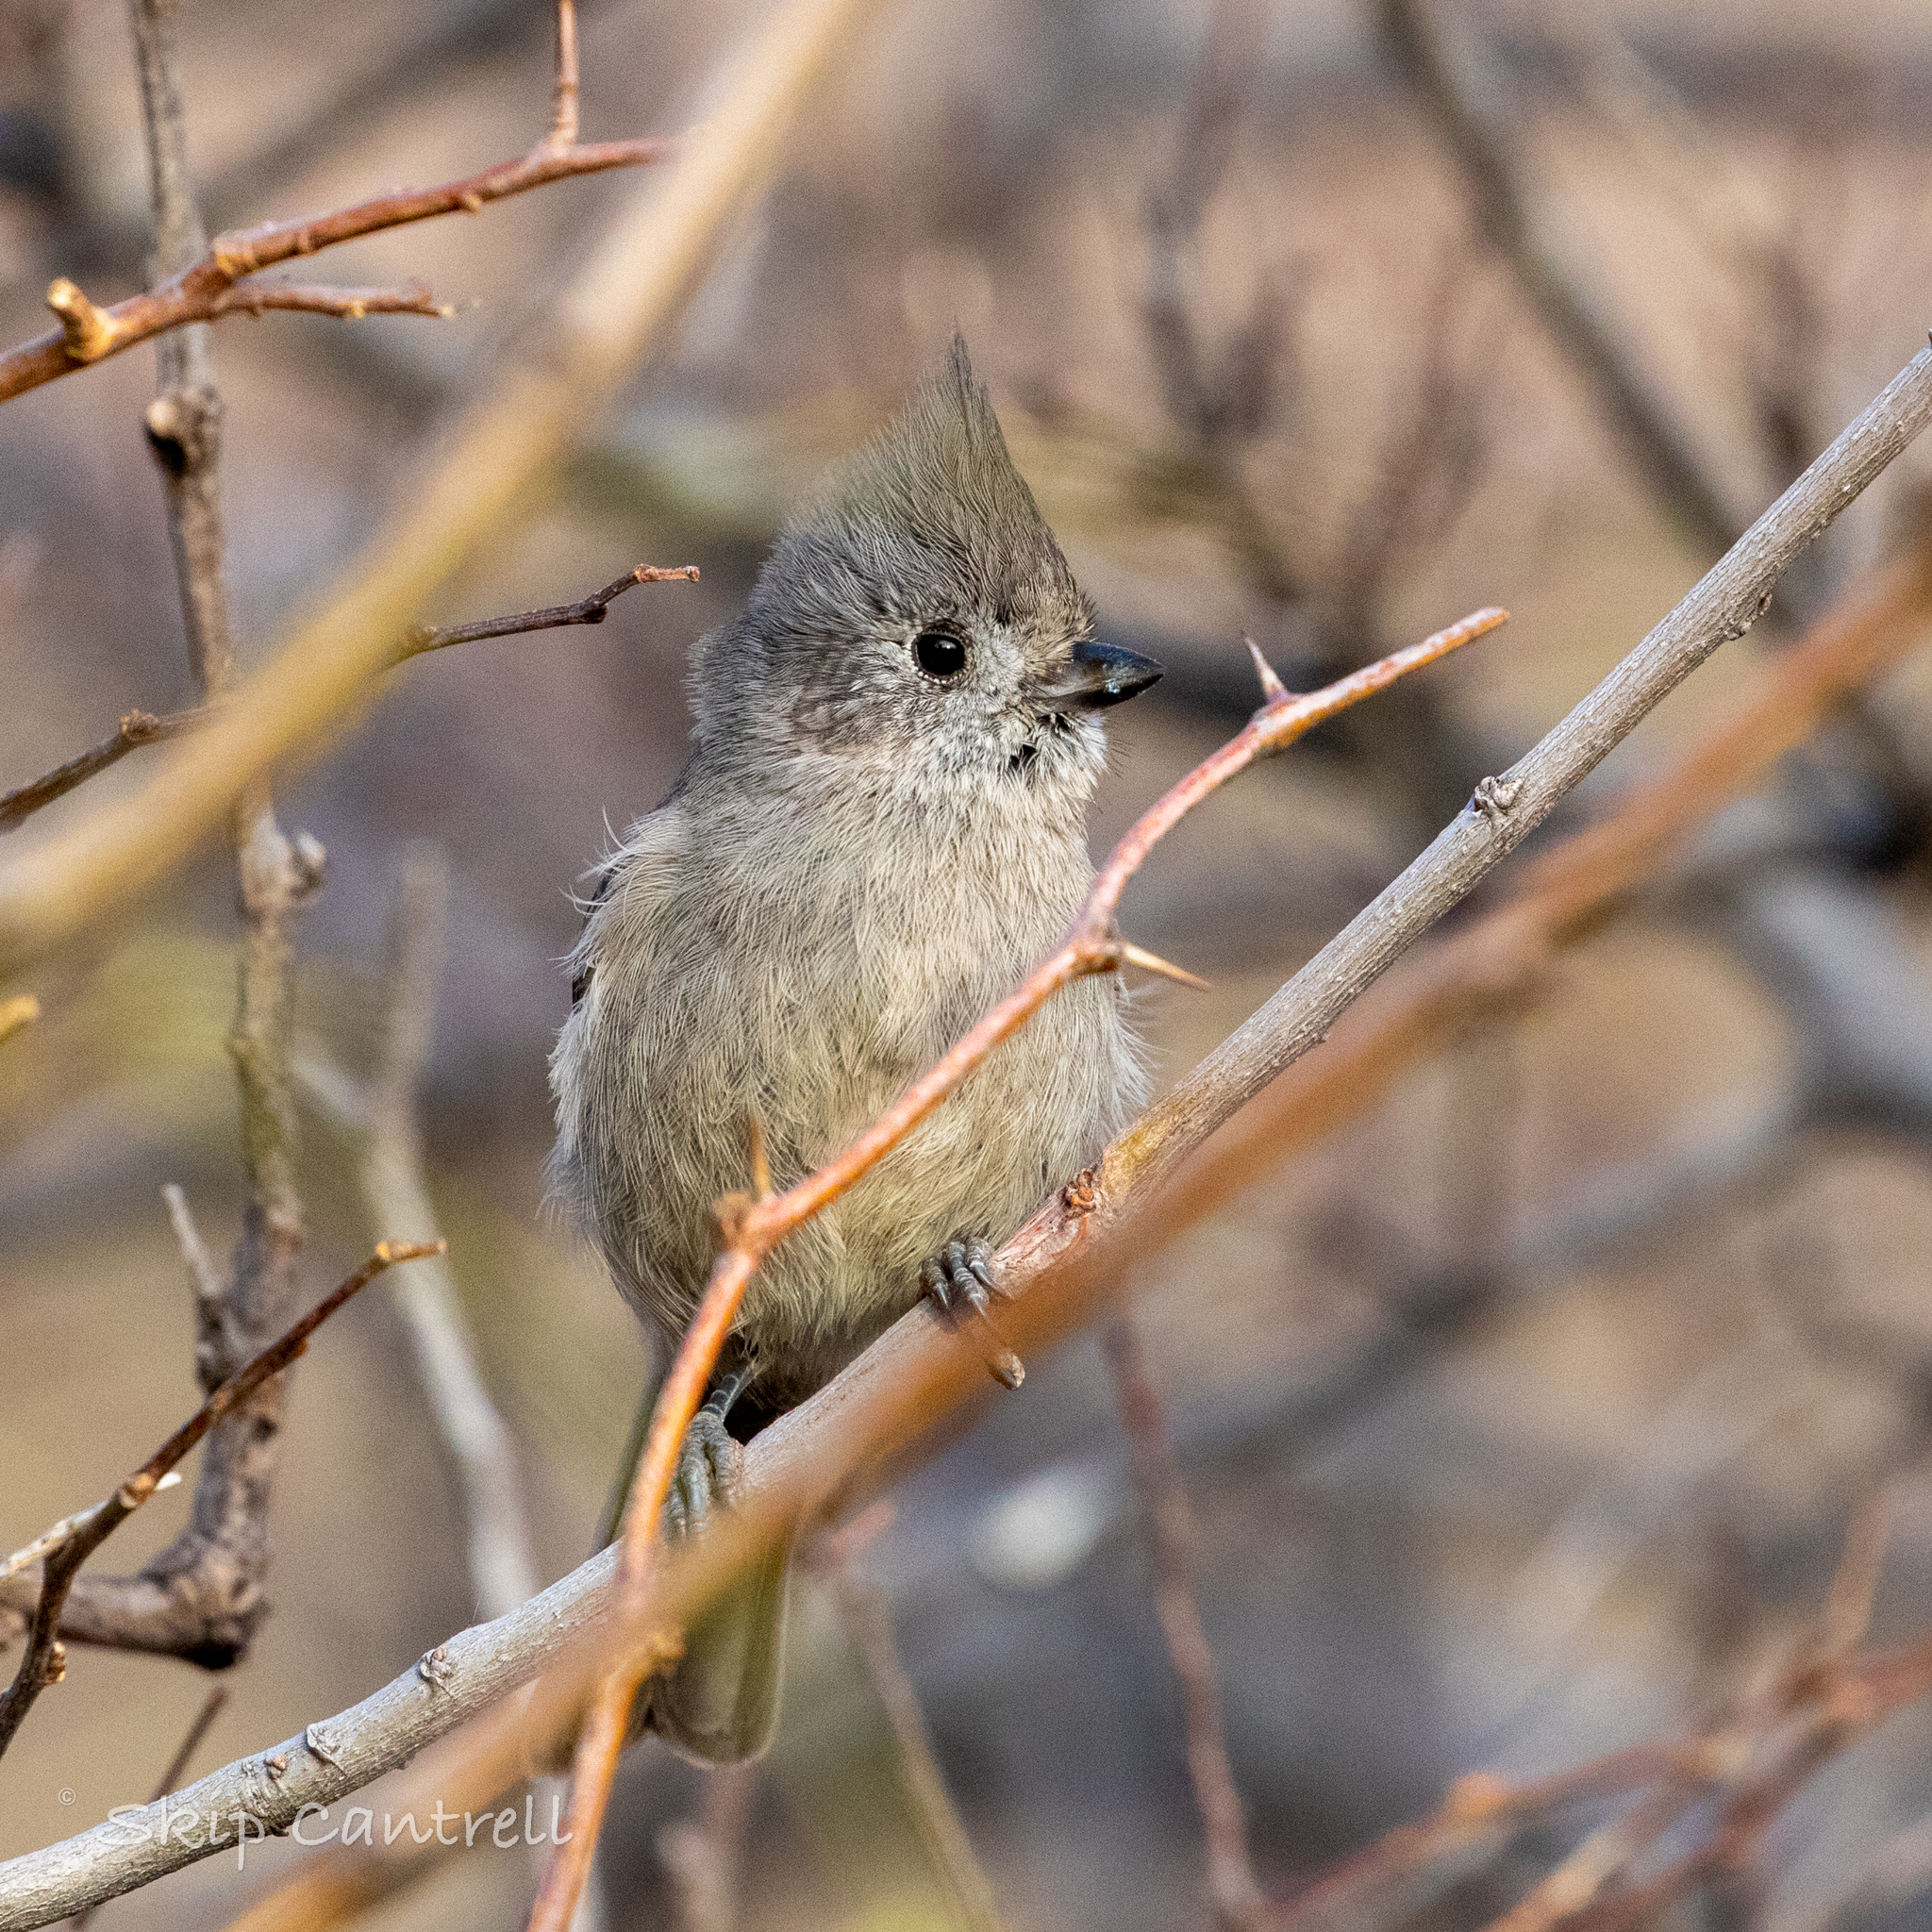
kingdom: Animalia
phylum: Chordata
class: Aves
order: Passeriformes
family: Paridae
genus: Baeolophus
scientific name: Baeolophus ridgwayi
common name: Juniper titmouse
